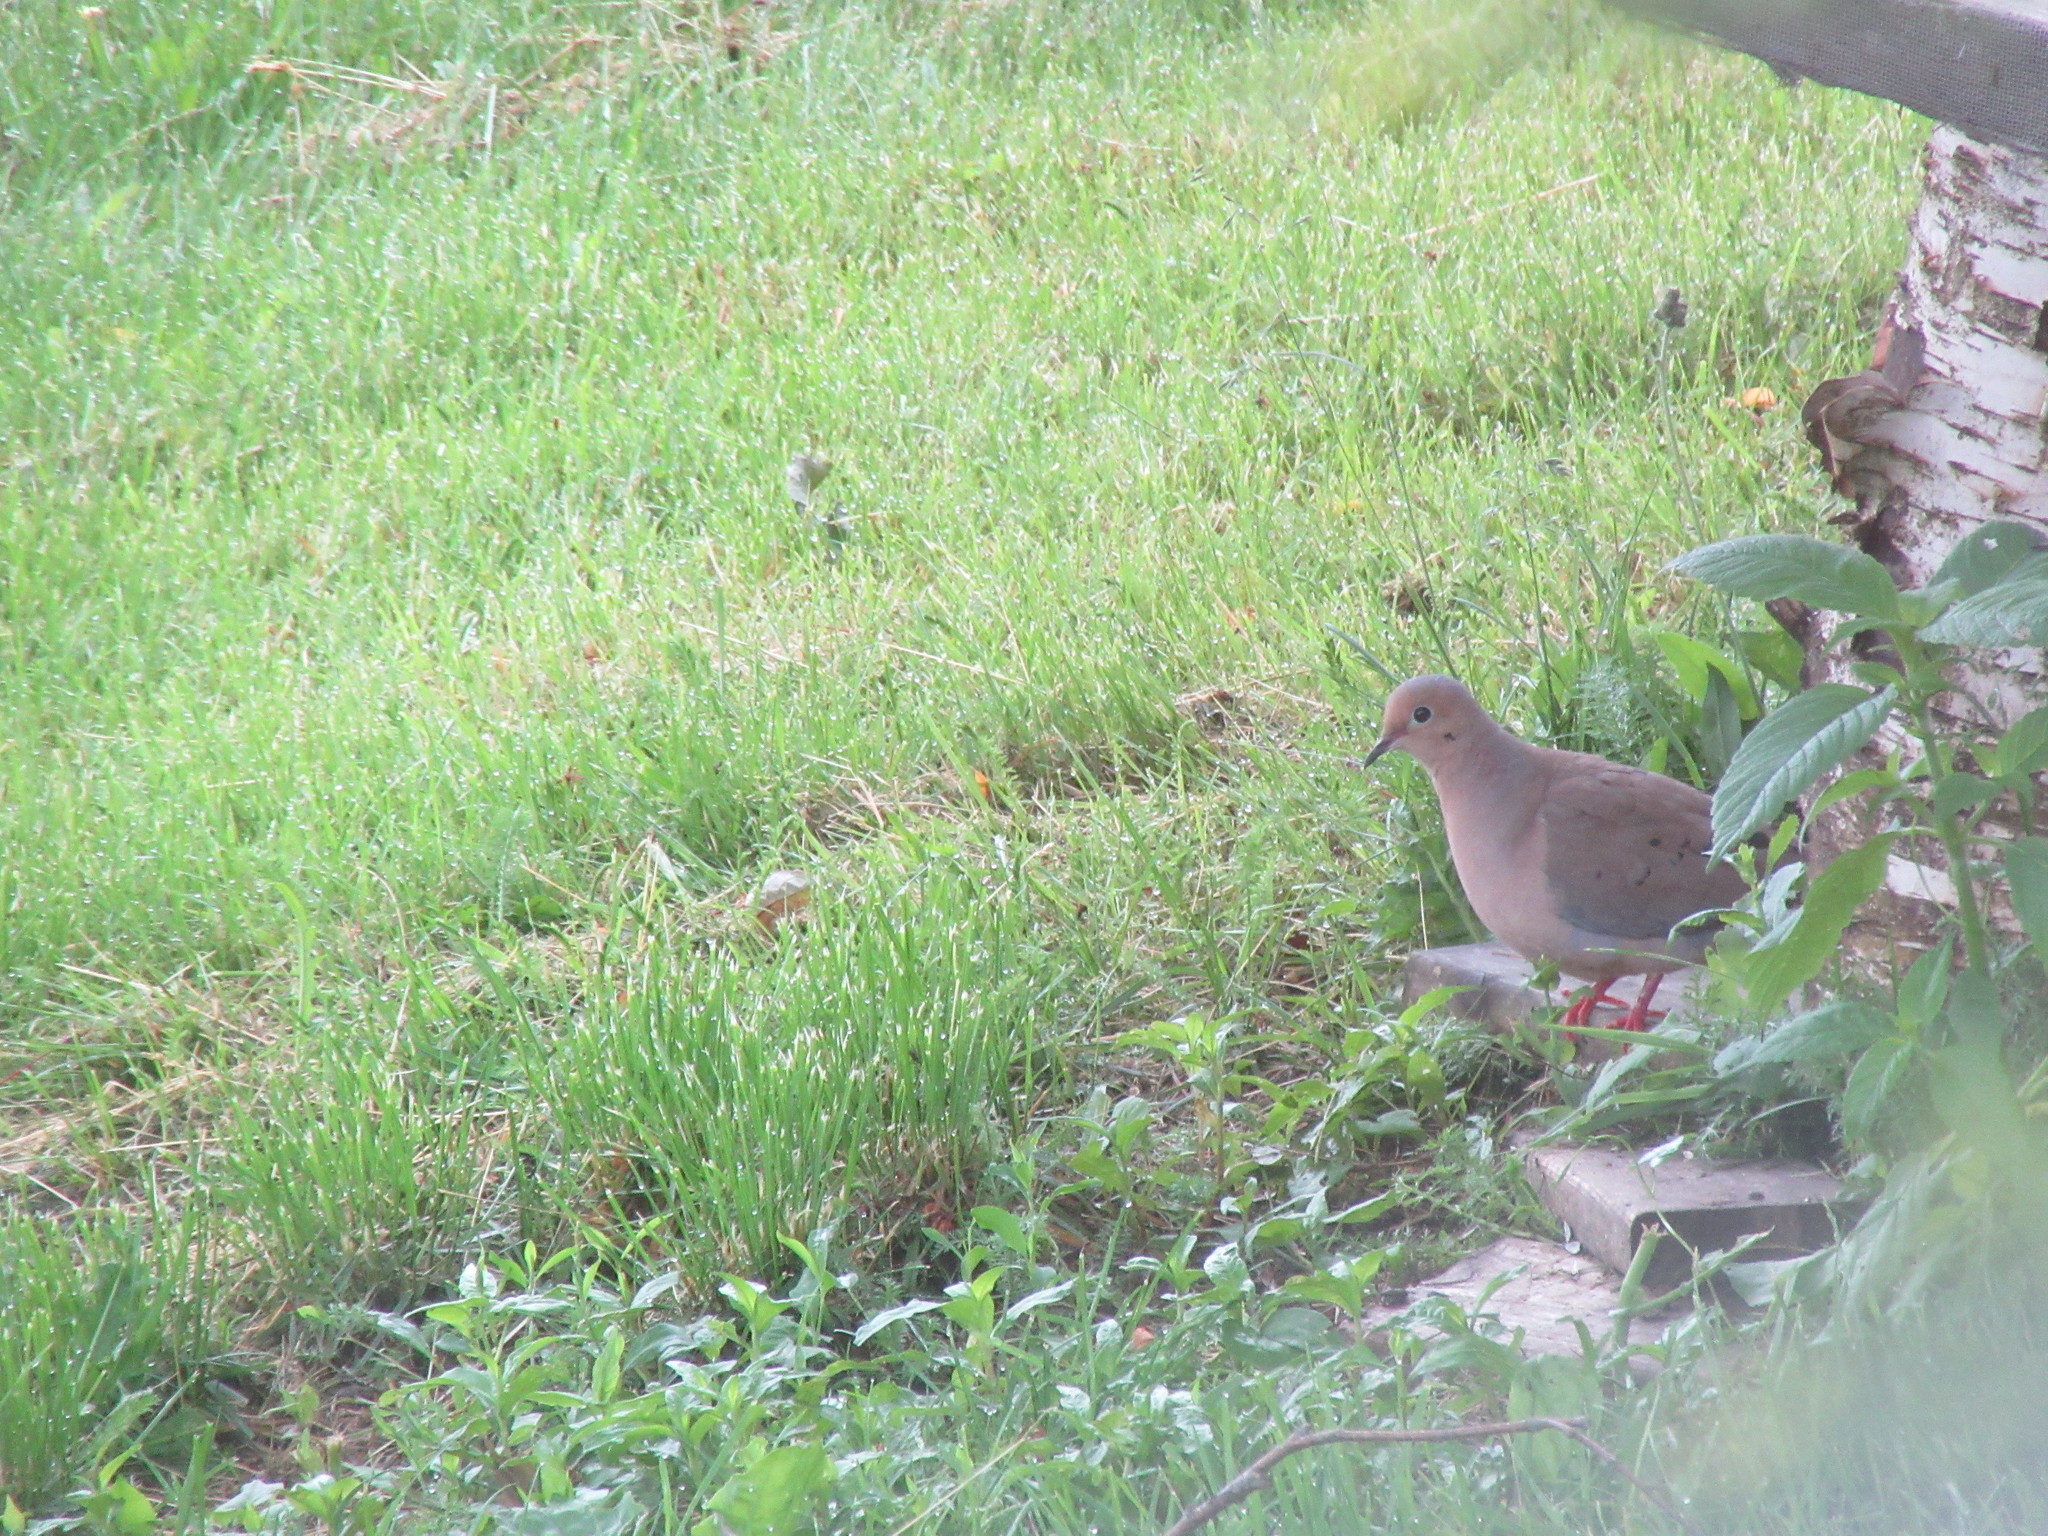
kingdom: Animalia
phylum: Chordata
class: Aves
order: Columbiformes
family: Columbidae
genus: Zenaida
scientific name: Zenaida macroura
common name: Mourning dove
